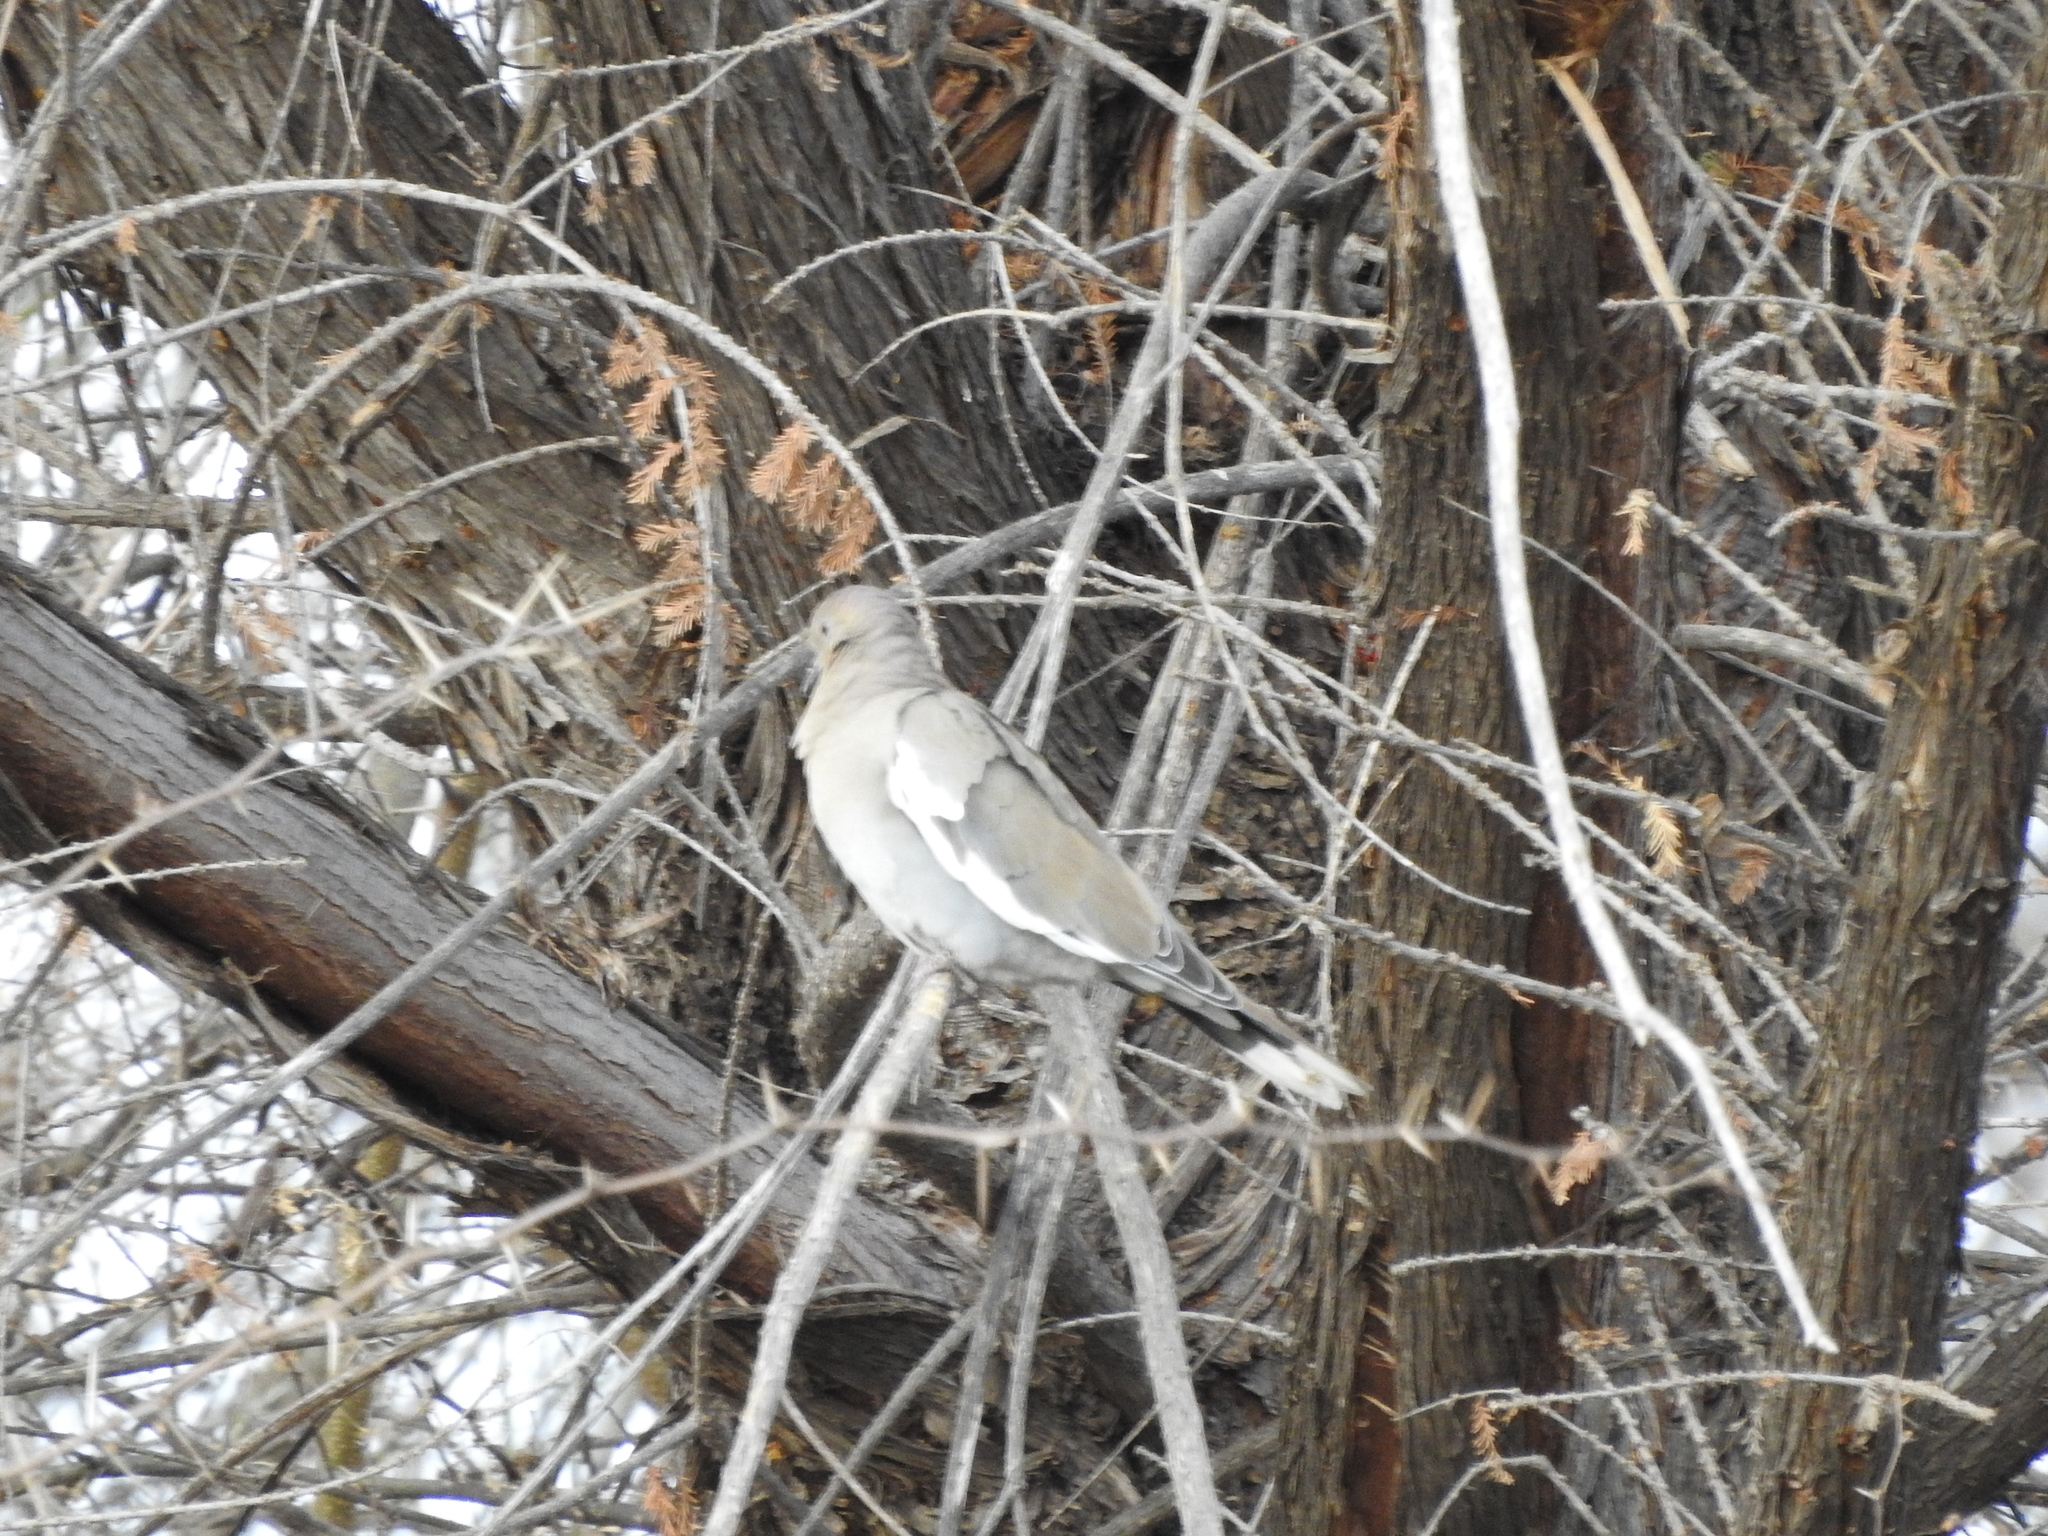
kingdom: Animalia
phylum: Chordata
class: Aves
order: Columbiformes
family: Columbidae
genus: Zenaida
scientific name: Zenaida asiatica
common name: White-winged dove
